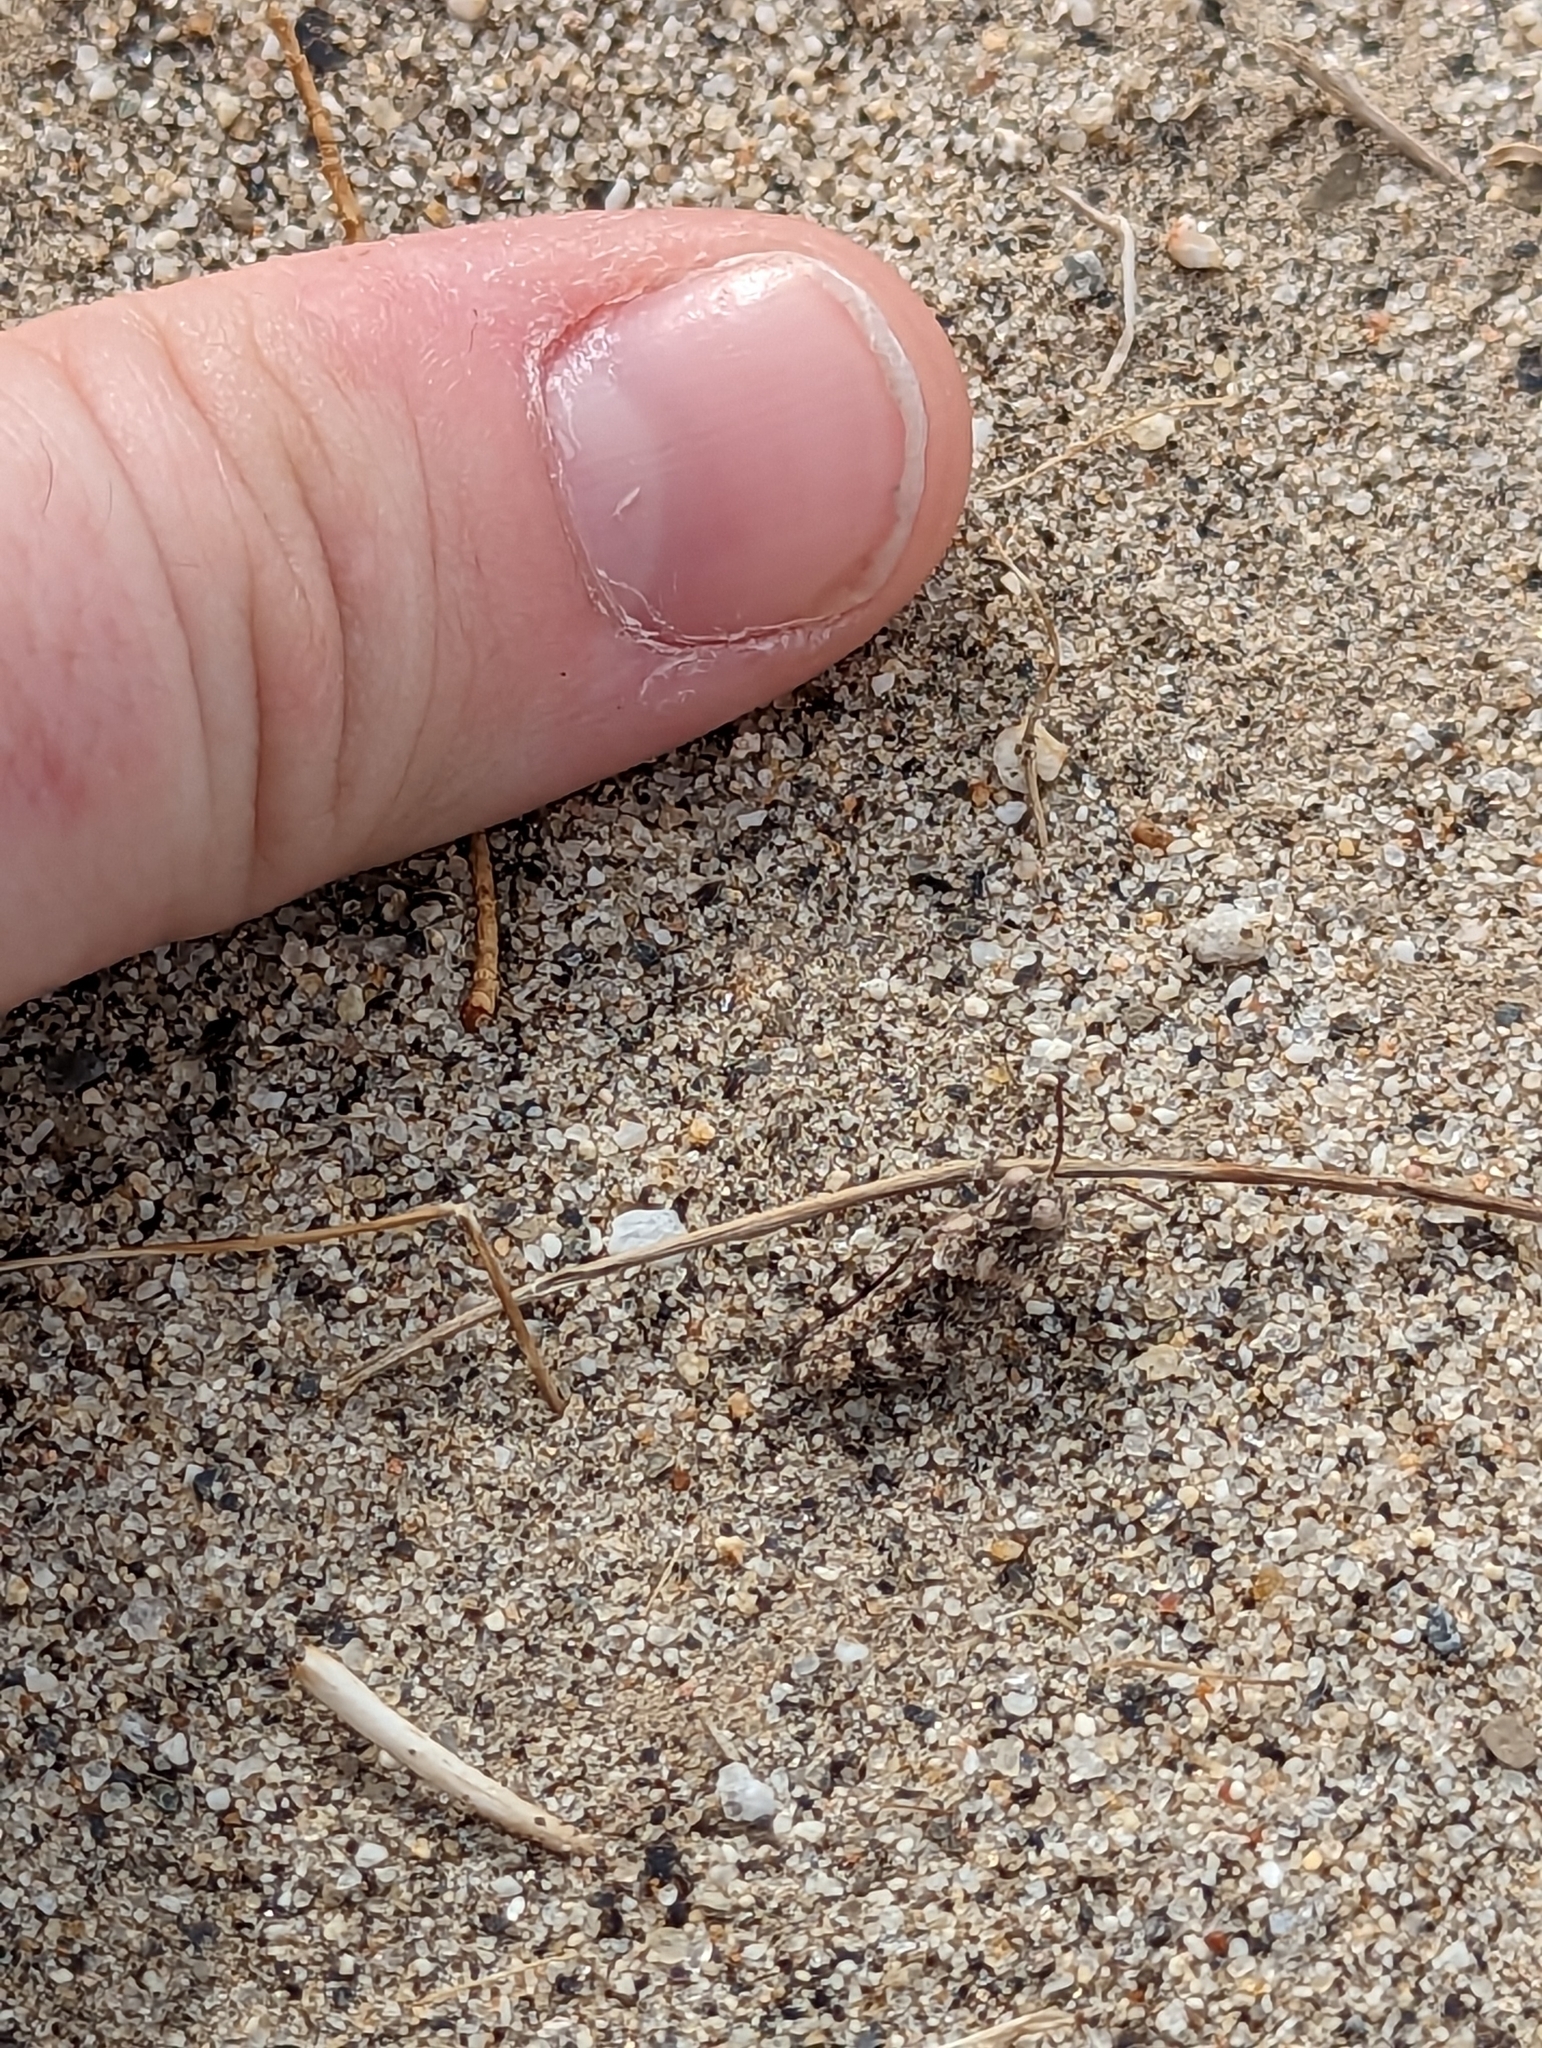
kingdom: Animalia
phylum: Arthropoda
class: Insecta
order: Orthoptera
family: Acrididae
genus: Trimerotropis
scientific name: Trimerotropis pallidipennis
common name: Pallid-winged grasshopper
